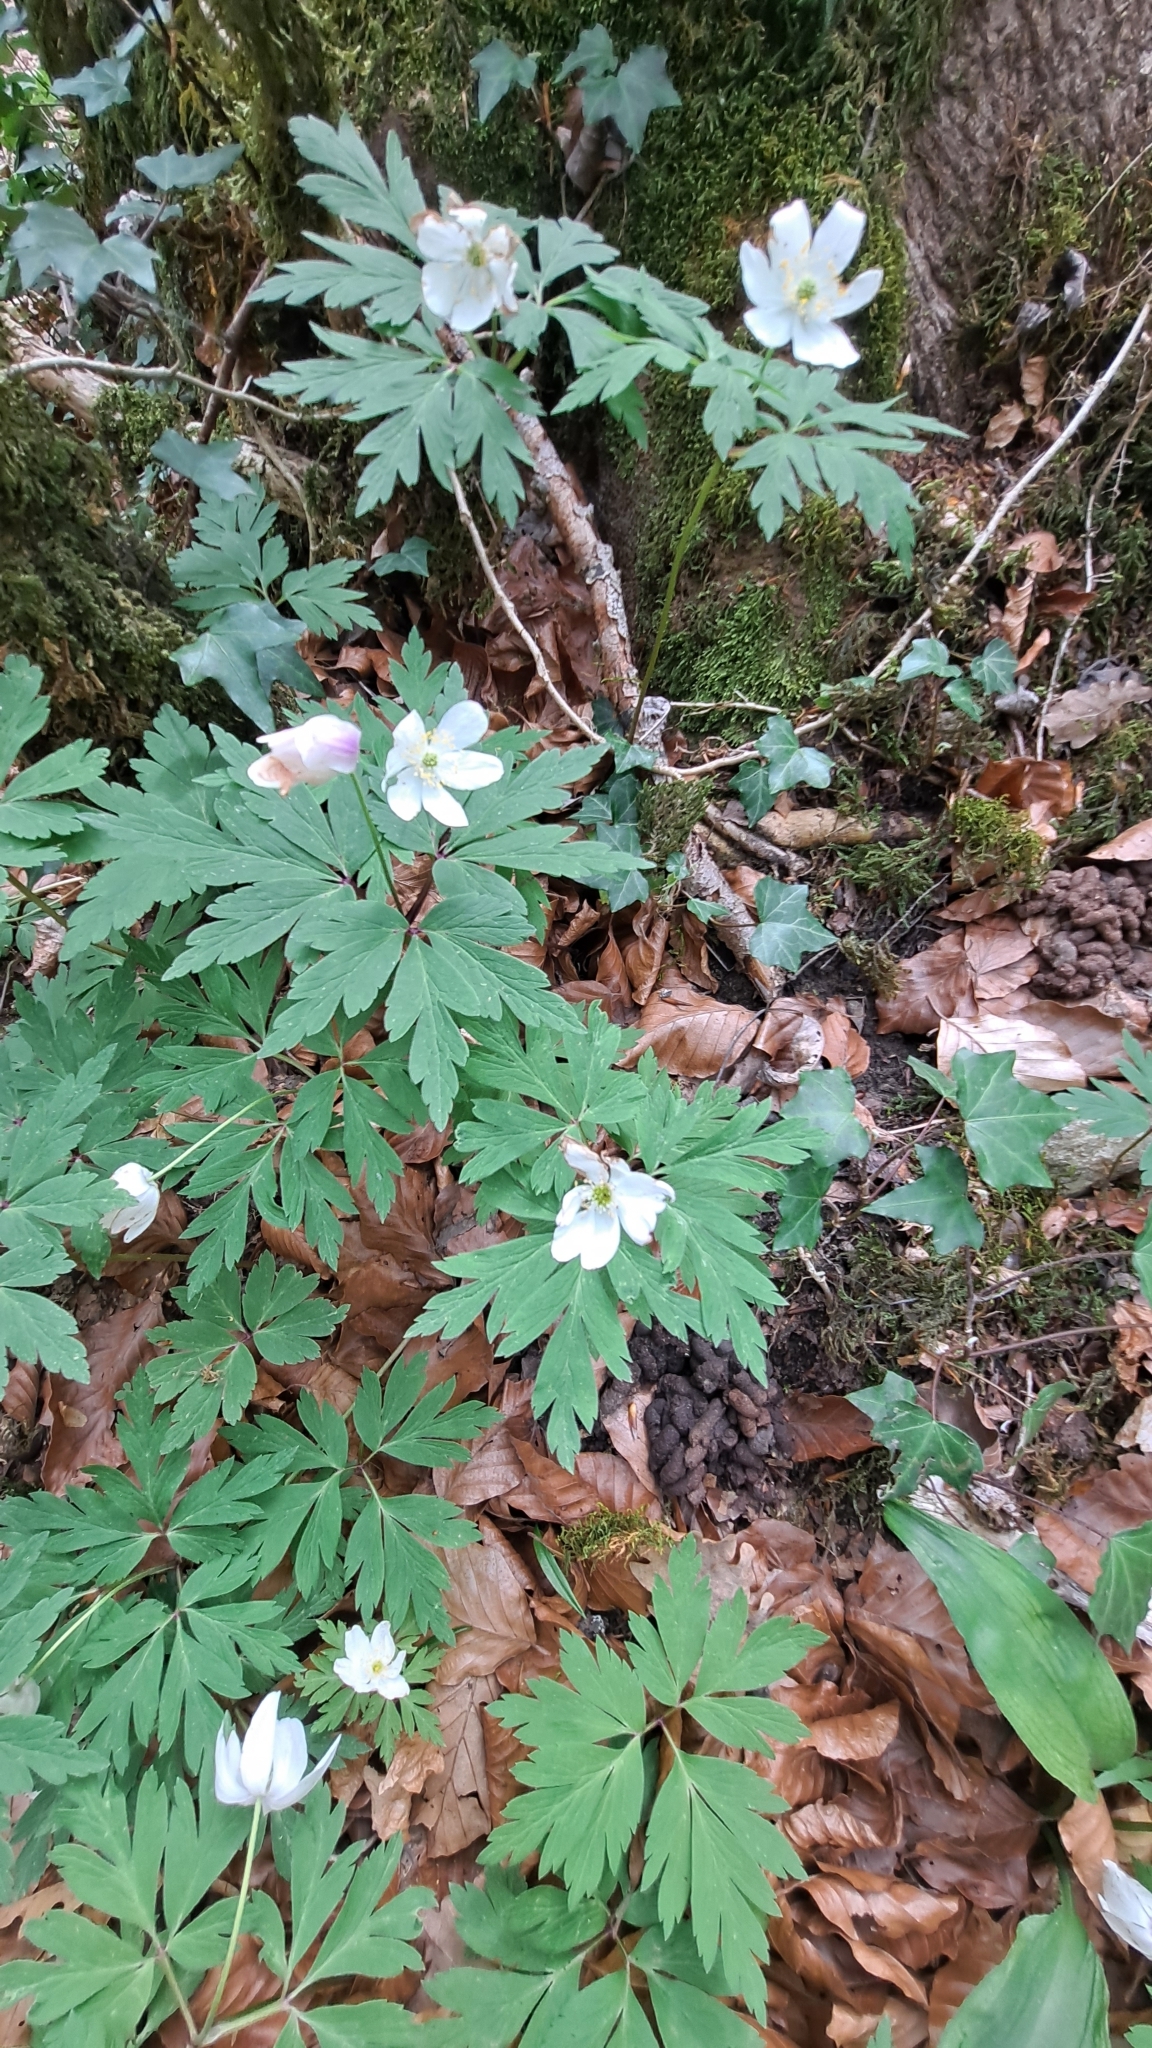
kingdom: Plantae
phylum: Tracheophyta
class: Magnoliopsida
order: Ranunculales
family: Ranunculaceae
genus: Anemone
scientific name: Anemone nemorosa
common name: Wood anemone
